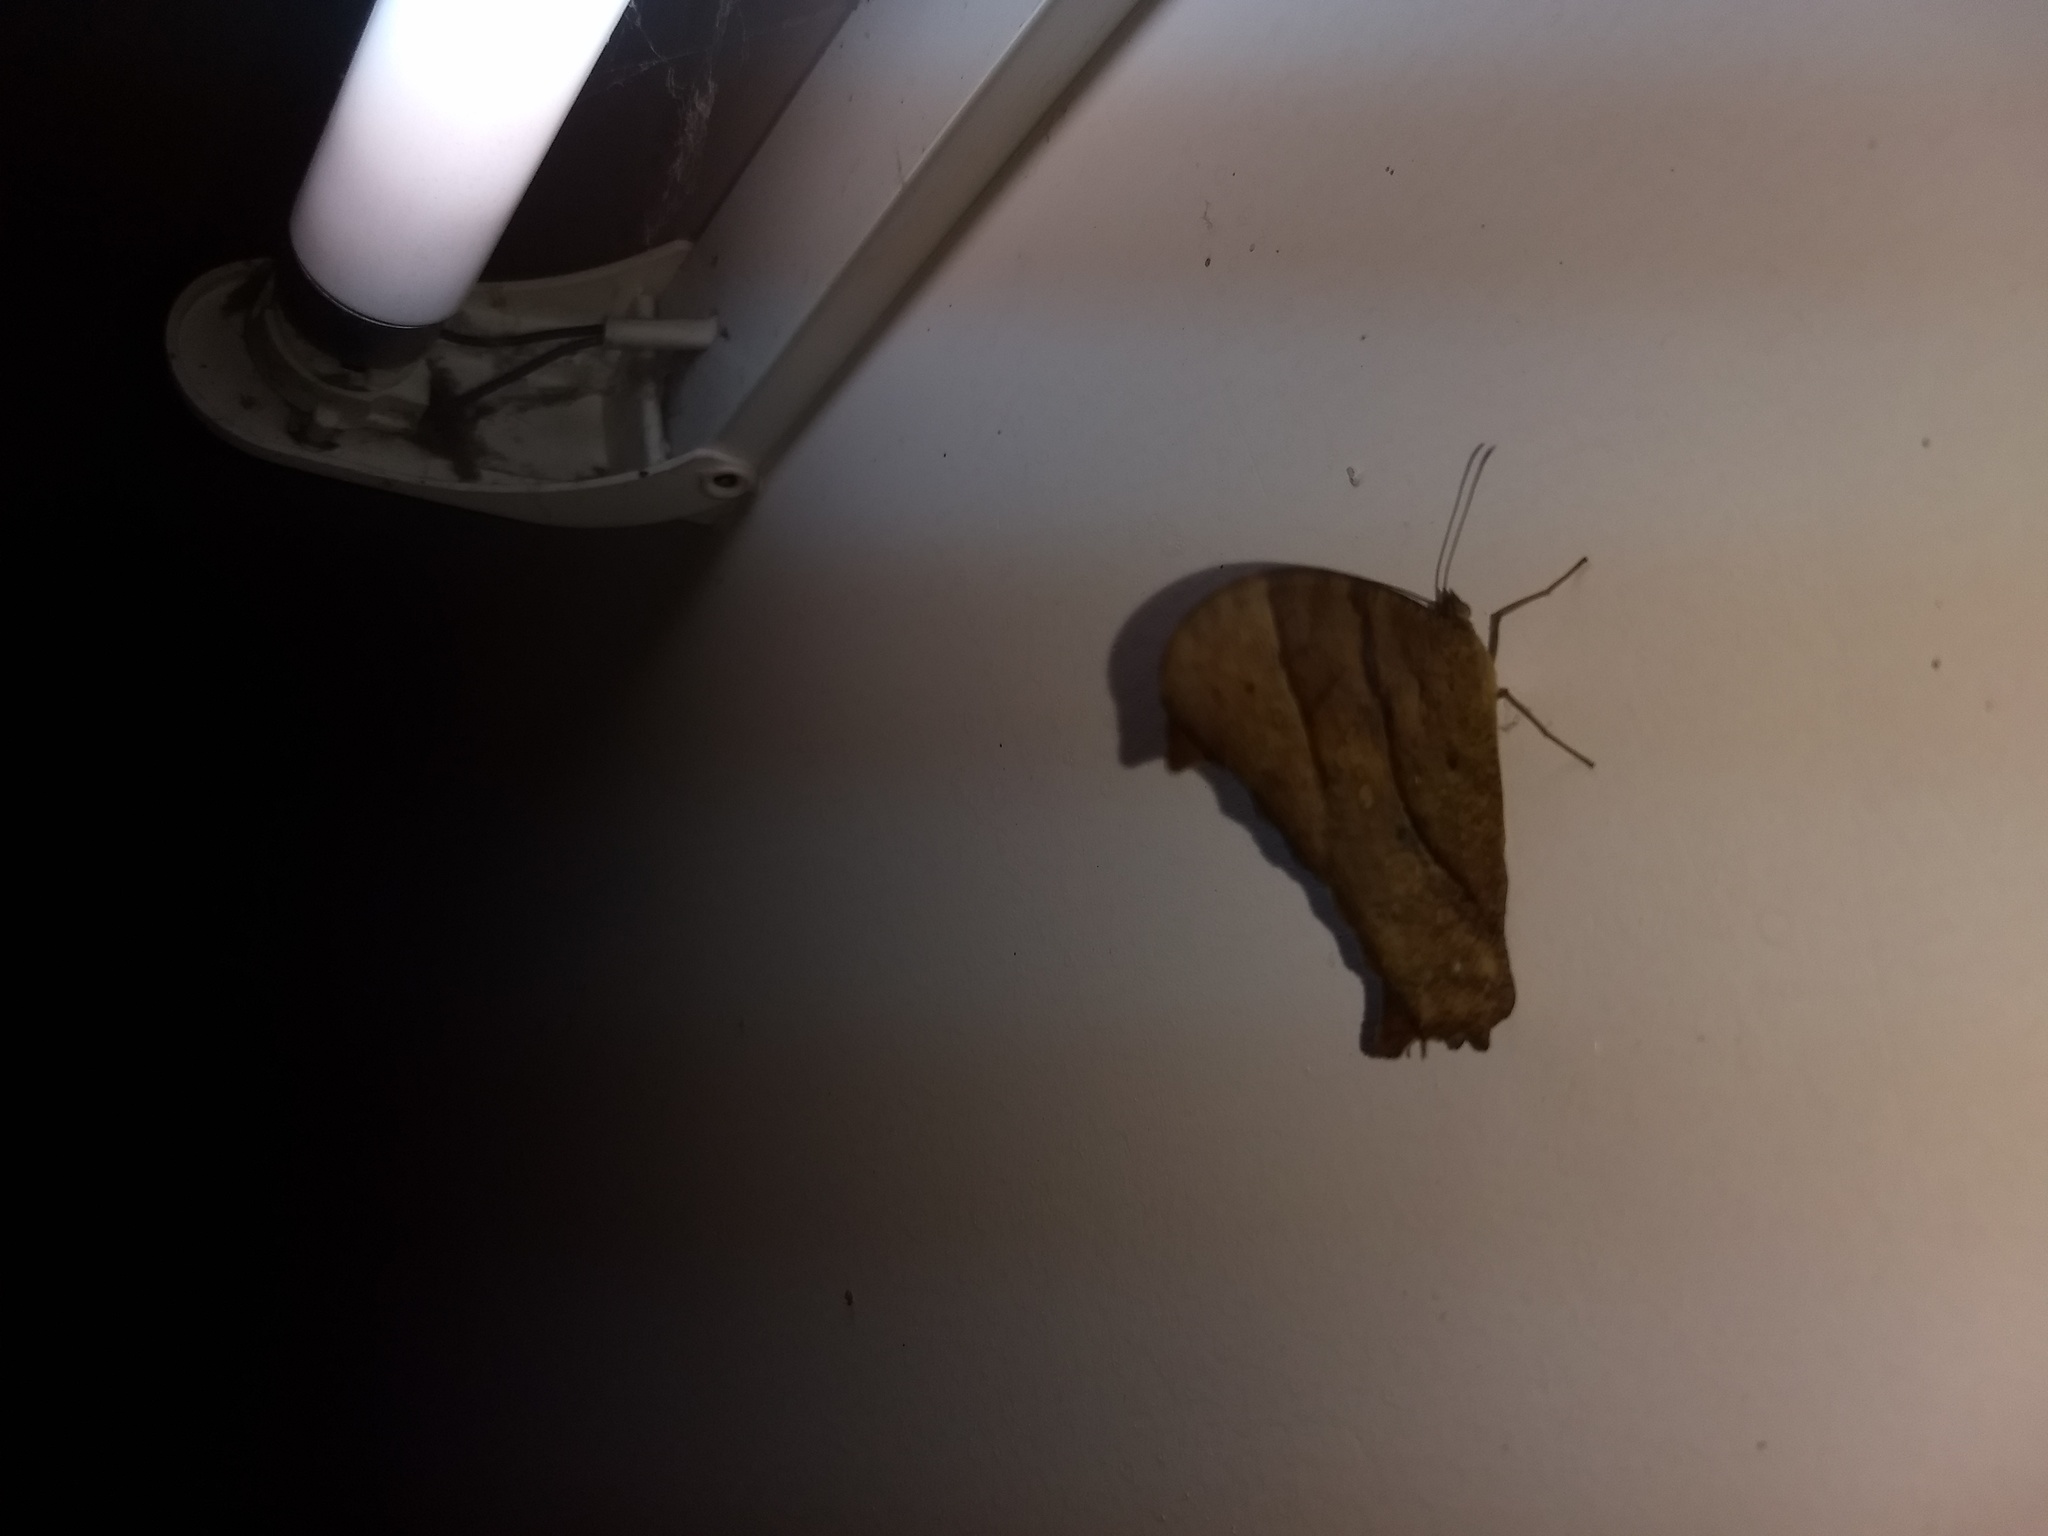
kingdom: Animalia
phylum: Arthropoda
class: Insecta
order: Lepidoptera
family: Nymphalidae
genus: Melanitis
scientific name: Melanitis leda
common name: Twilight brown
